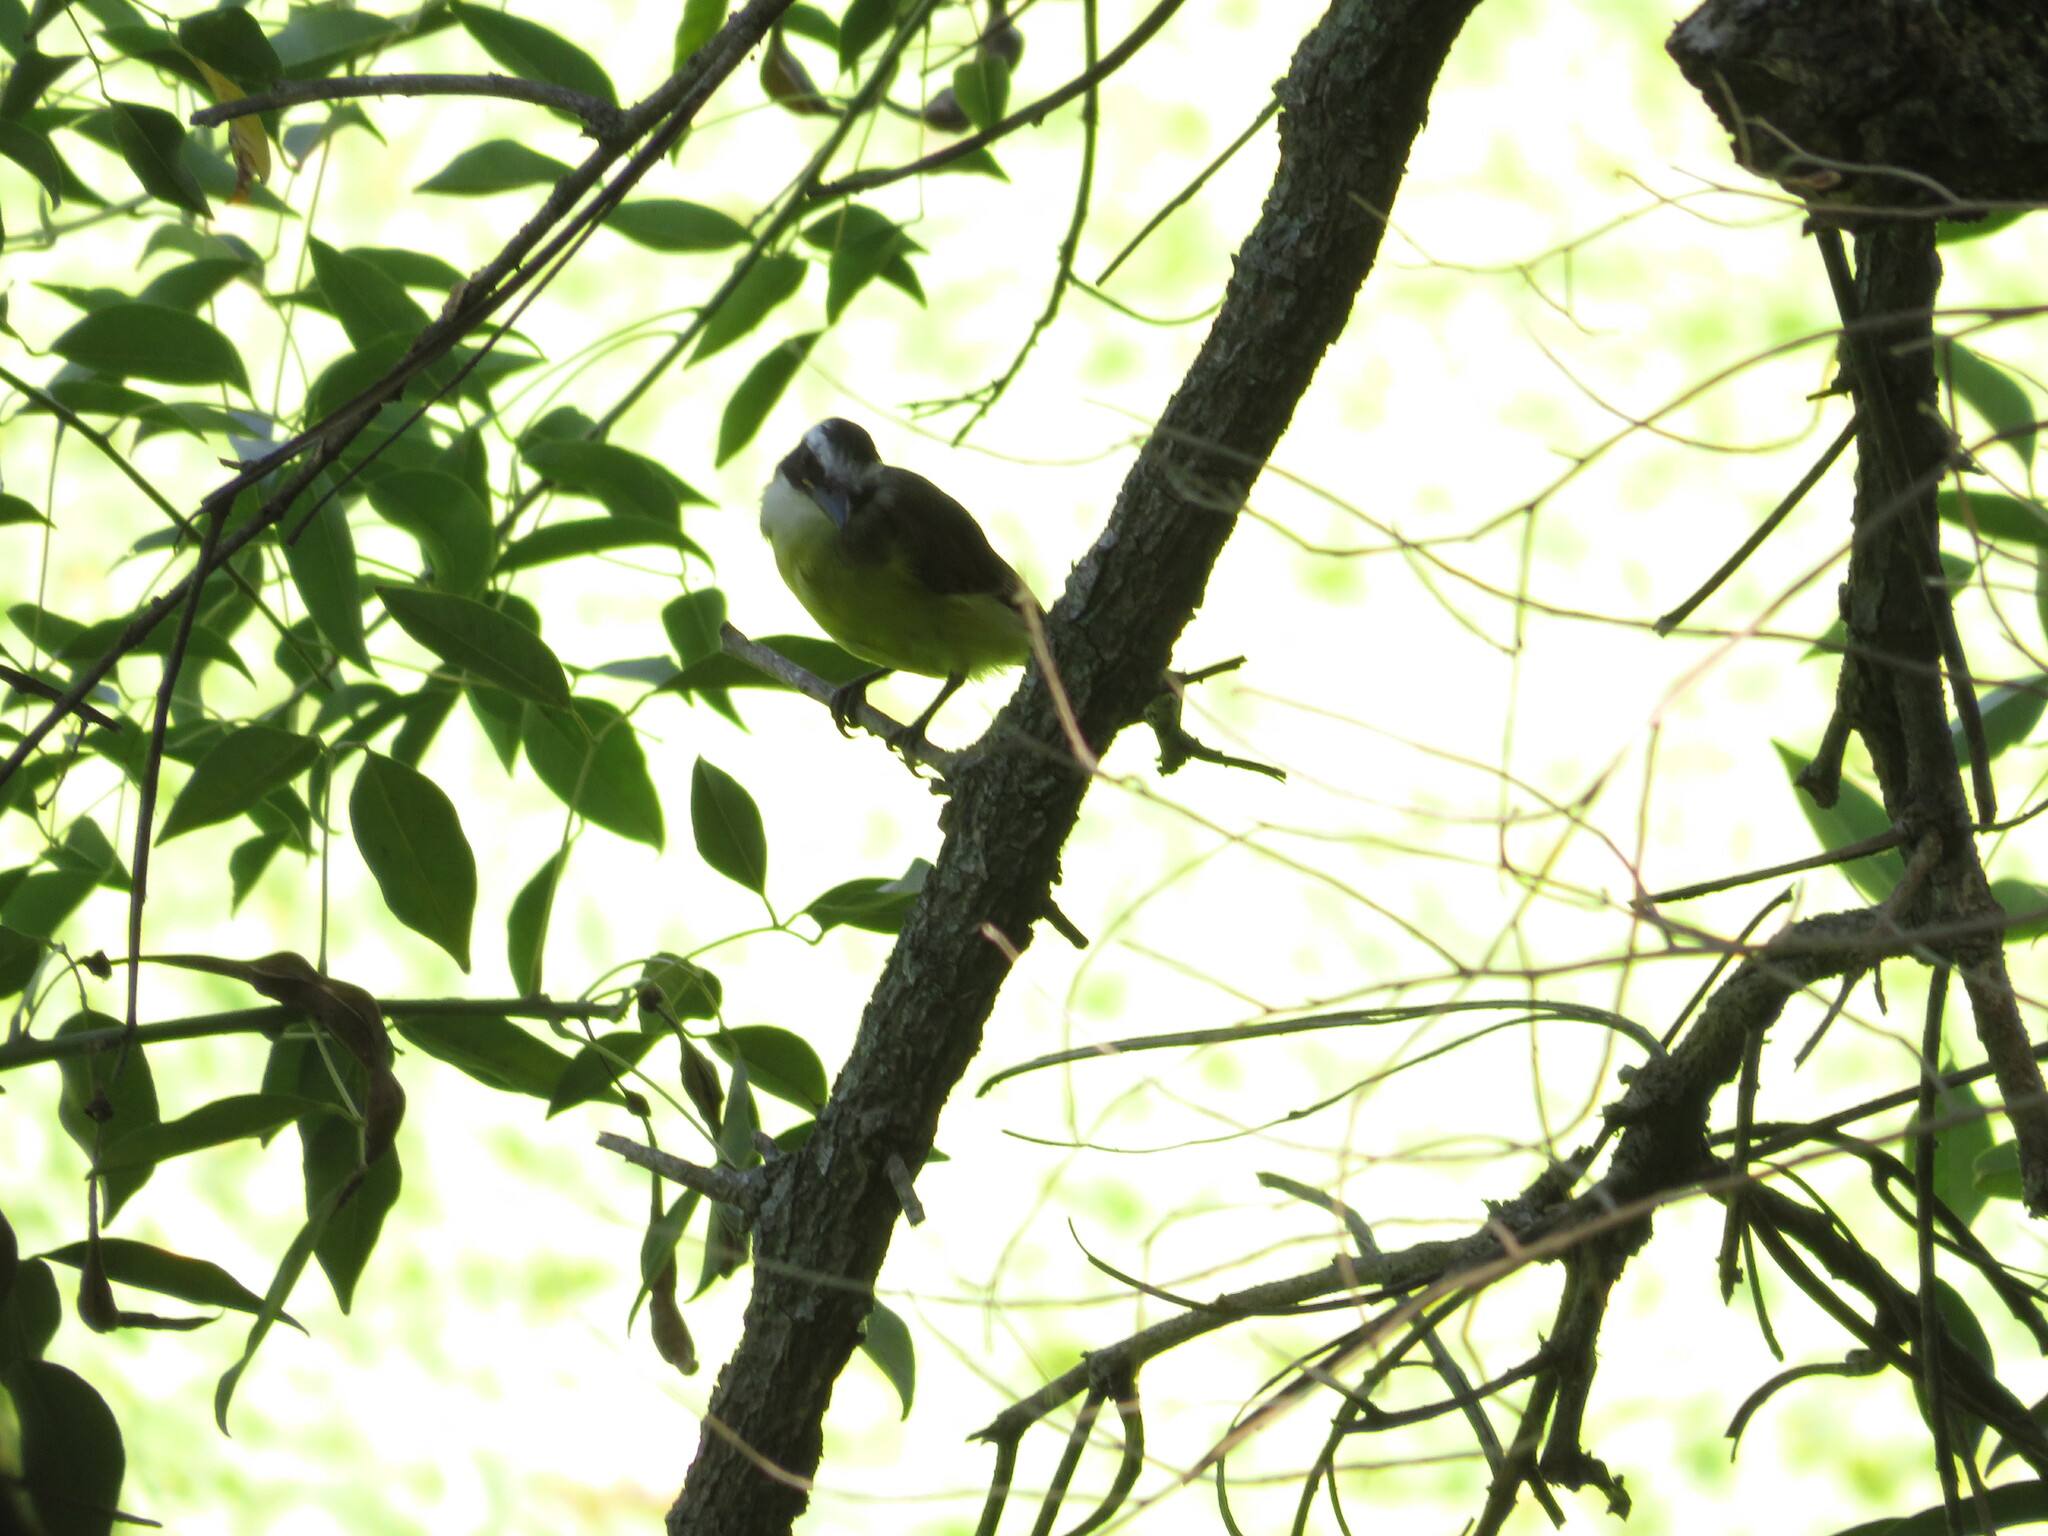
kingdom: Animalia
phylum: Chordata
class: Aves
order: Passeriformes
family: Tyrannidae
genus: Pitangus
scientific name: Pitangus sulphuratus
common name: Great kiskadee
